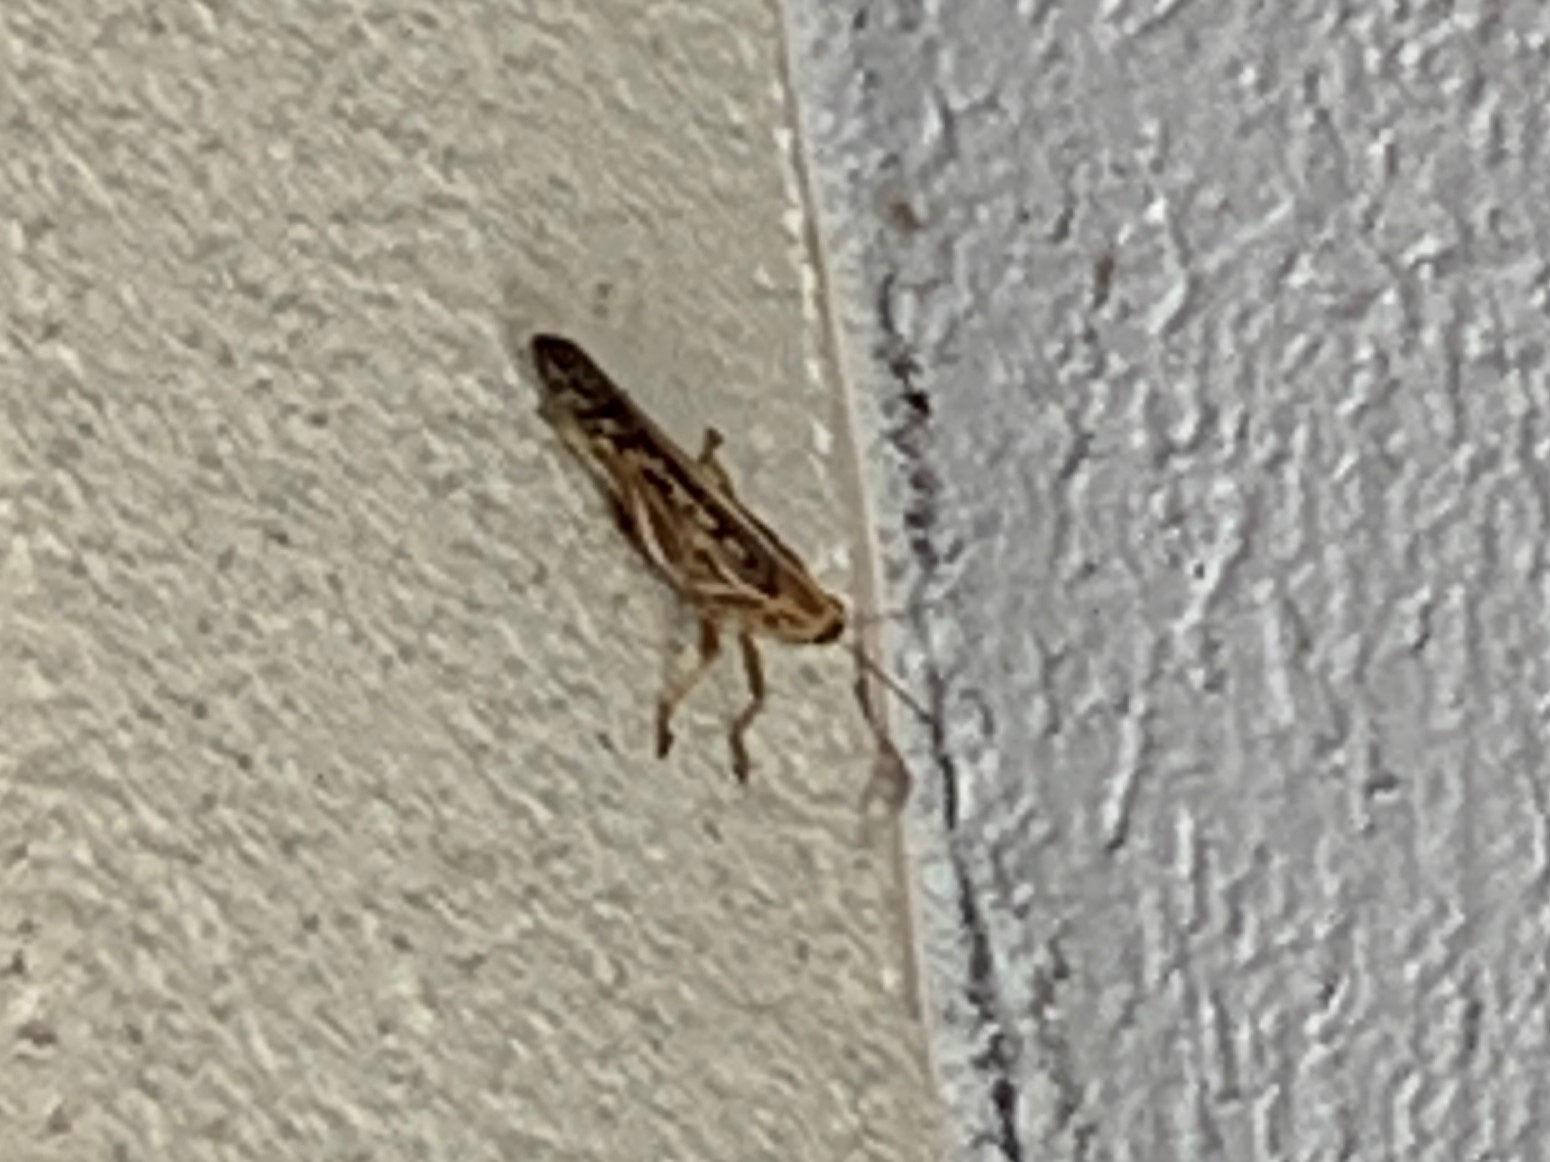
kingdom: Animalia
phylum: Arthropoda
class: Insecta
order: Orthoptera
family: Acrididae
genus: Schistocerca
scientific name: Schistocerca americana
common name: American bird locust
